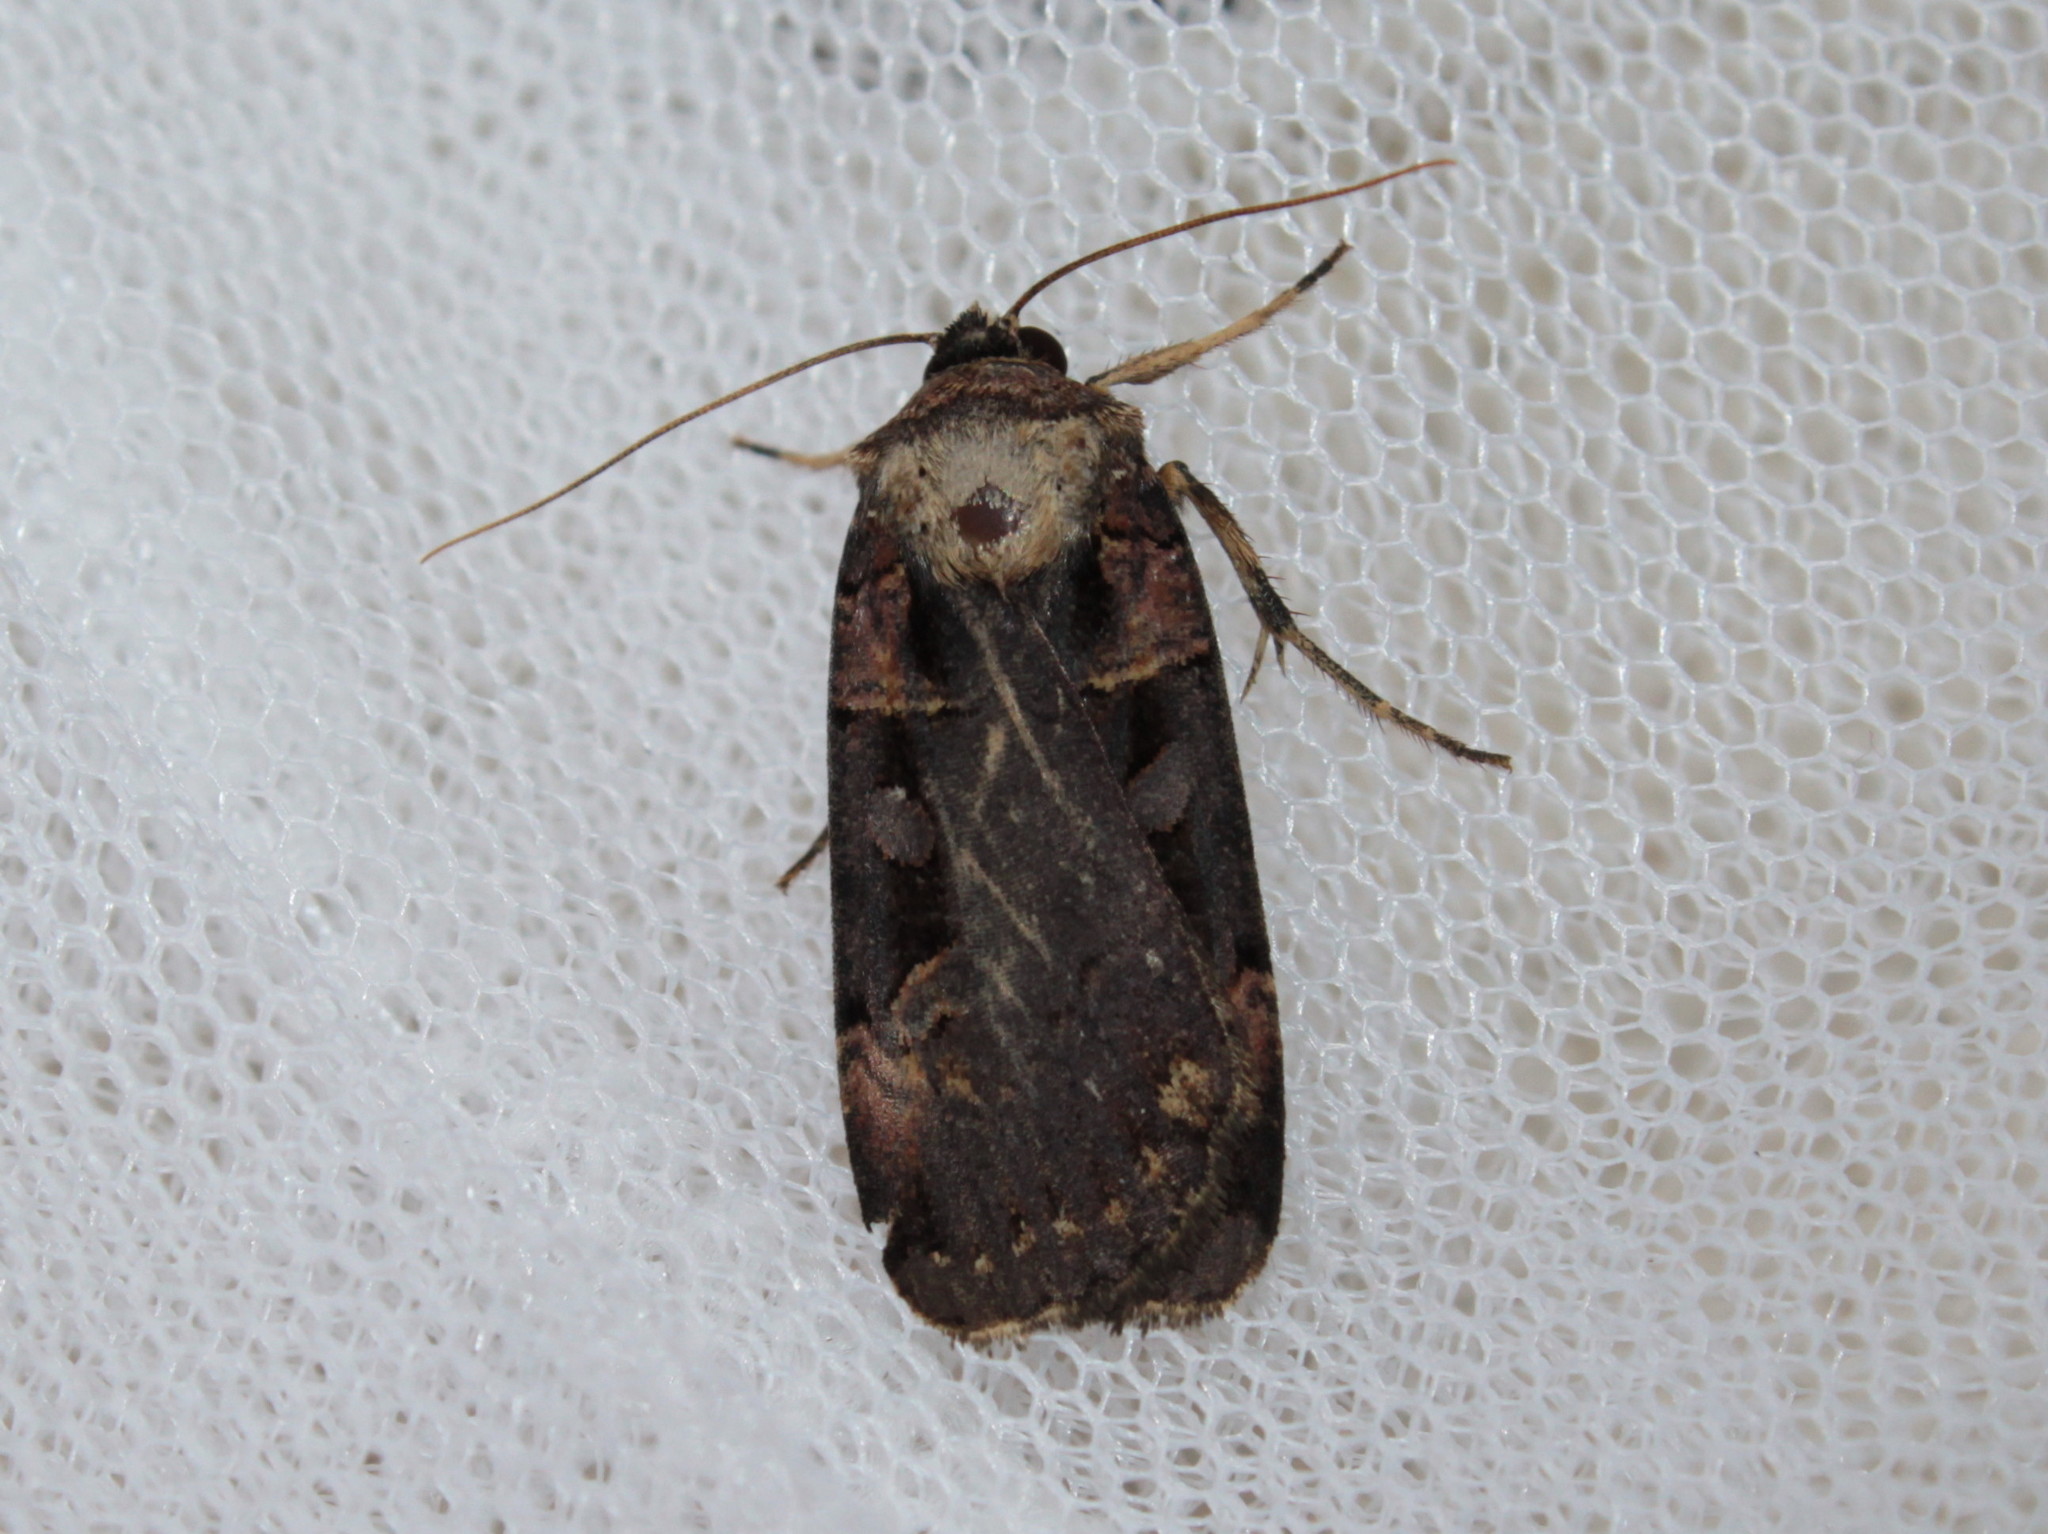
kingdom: Animalia
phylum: Arthropoda
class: Insecta
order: Lepidoptera
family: Noctuidae
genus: Pseudohermonassa
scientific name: Pseudohermonassa bicarnea
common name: Pink spotted dart
